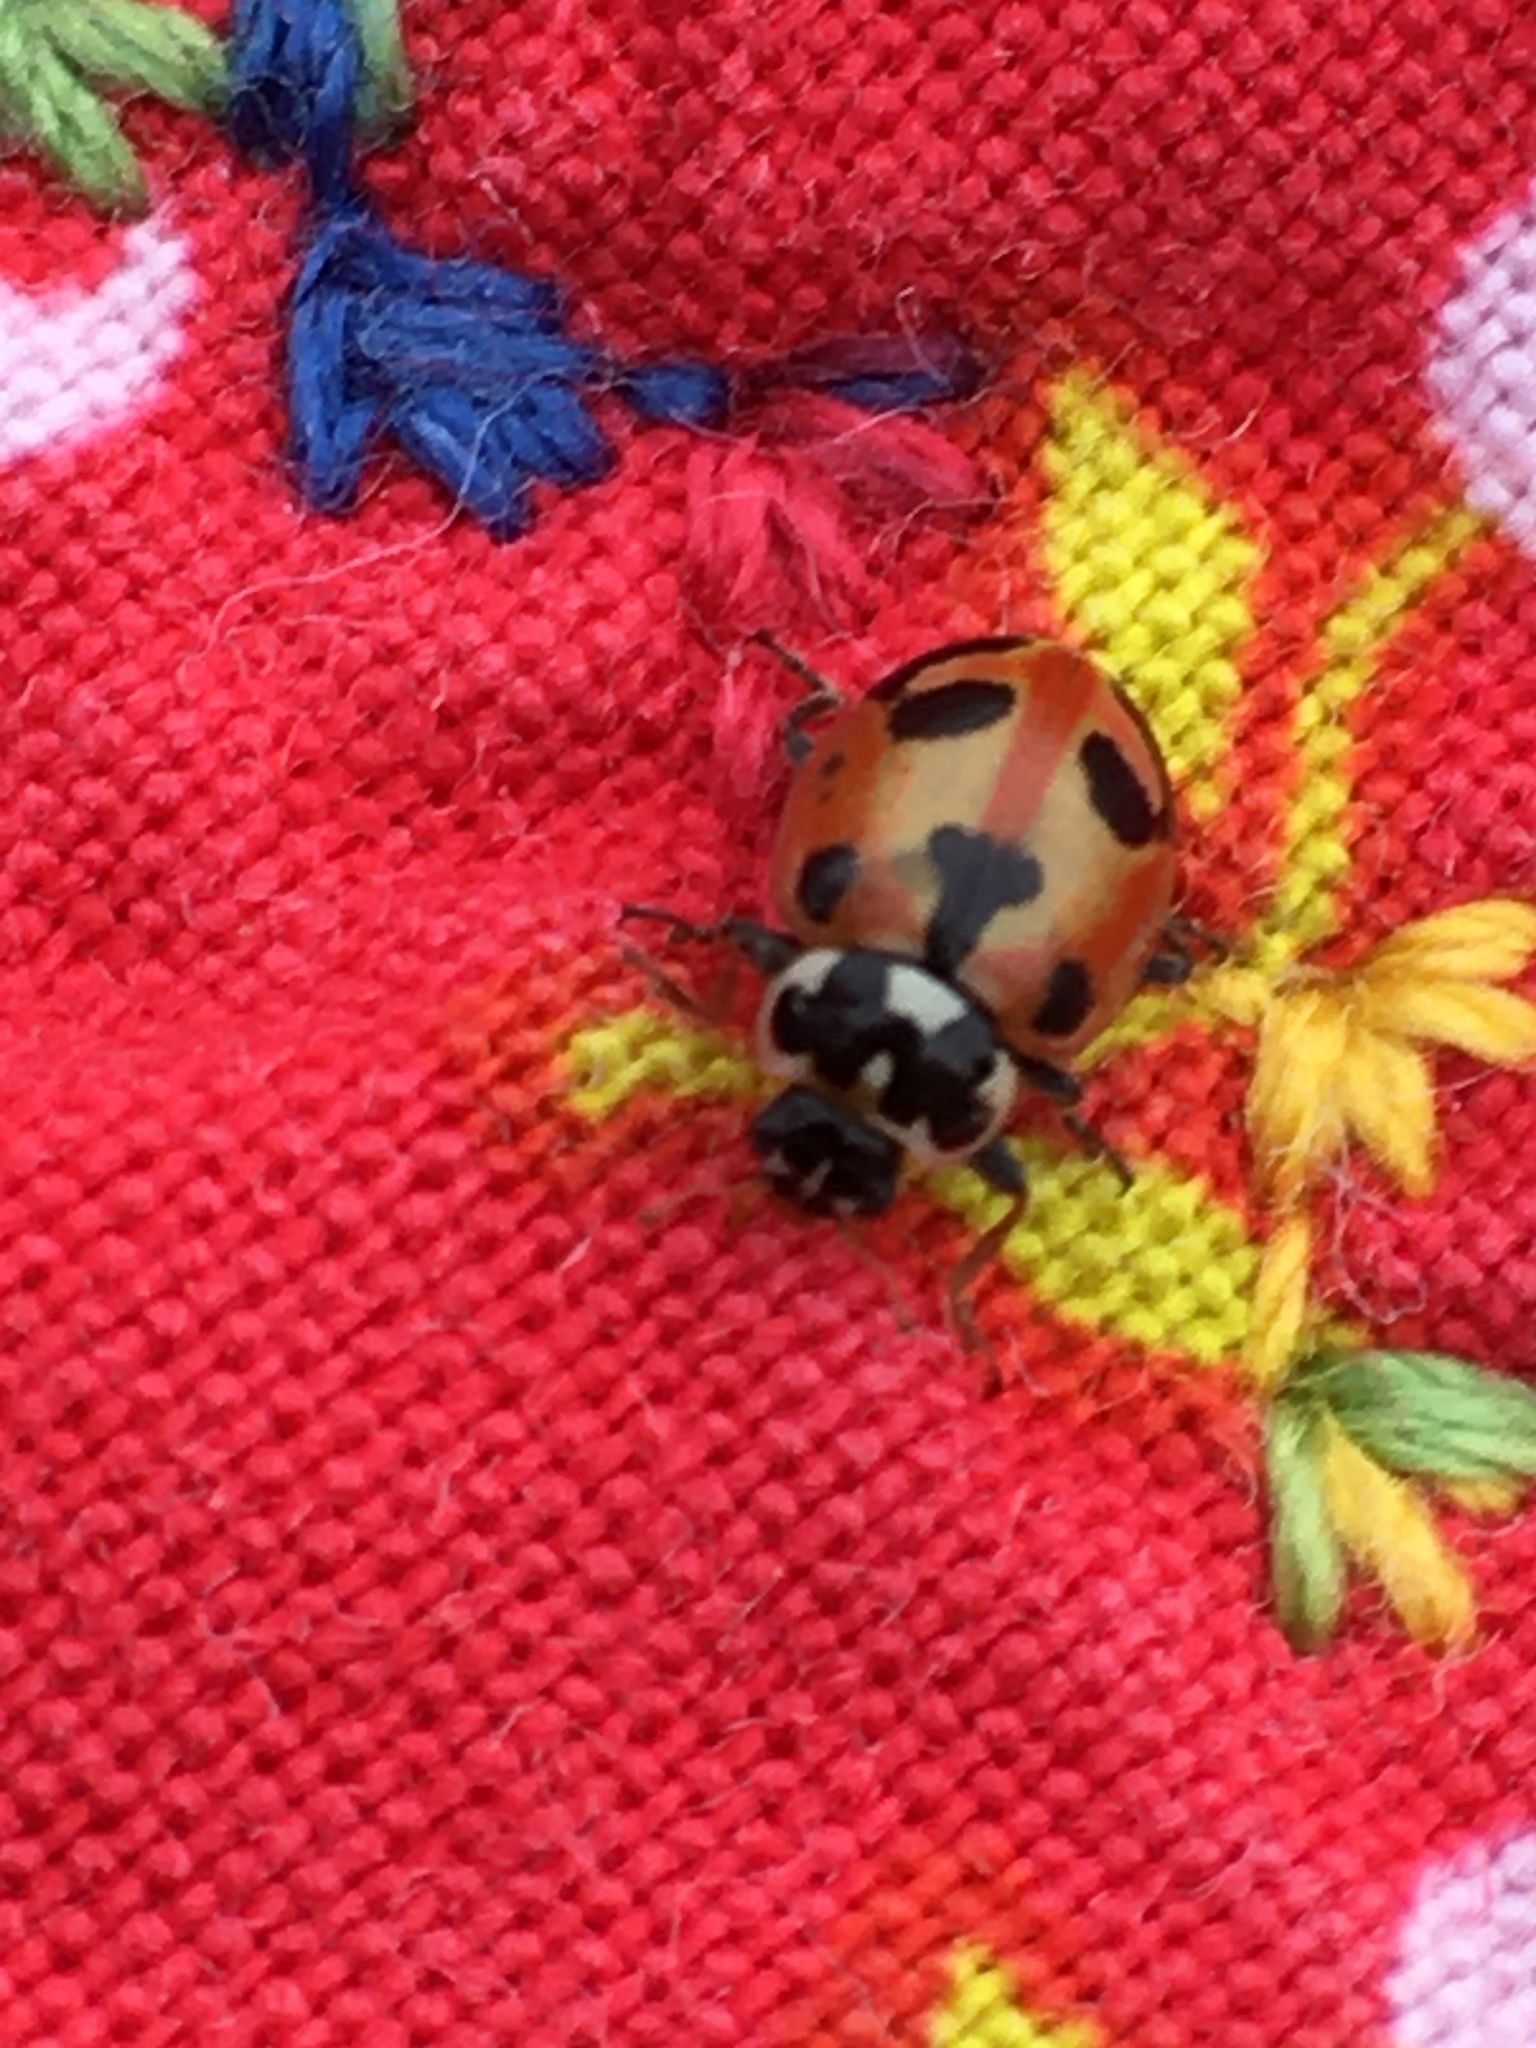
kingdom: Animalia
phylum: Arthropoda
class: Insecta
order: Coleoptera
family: Coccinellidae
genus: Hippodamia
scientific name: Hippodamia parenthesis
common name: Parenthesis lady beetle
